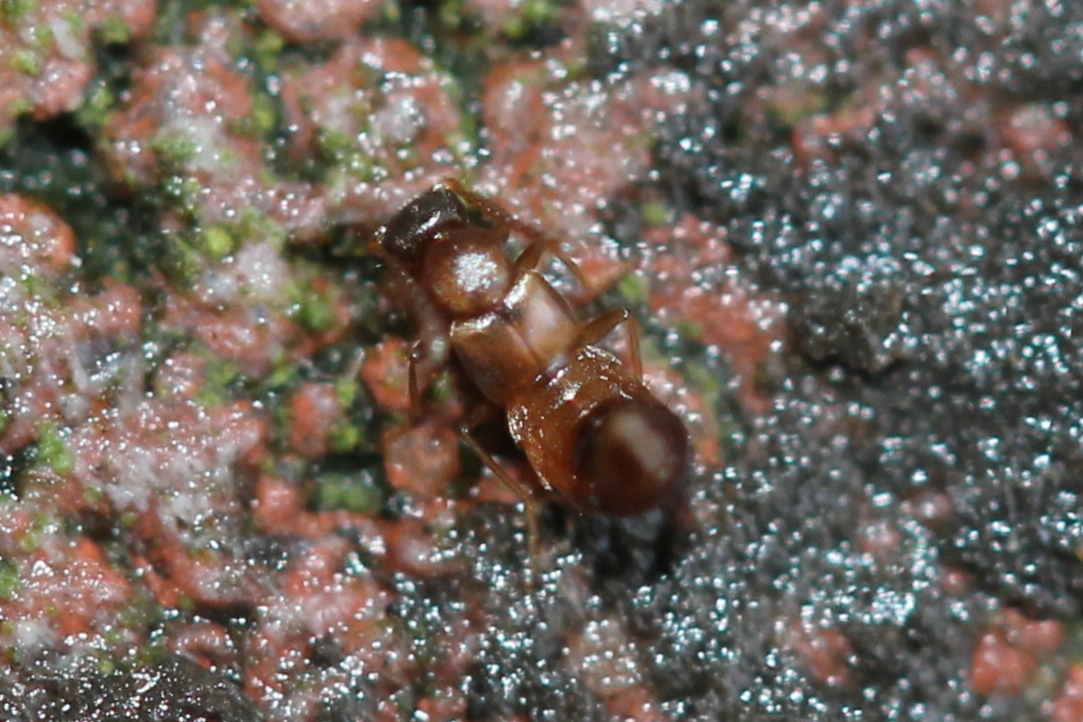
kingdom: Animalia
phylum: Arthropoda
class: Insecta
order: Coleoptera
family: Staphylinidae
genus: Meronera
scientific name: Meronera venustula
